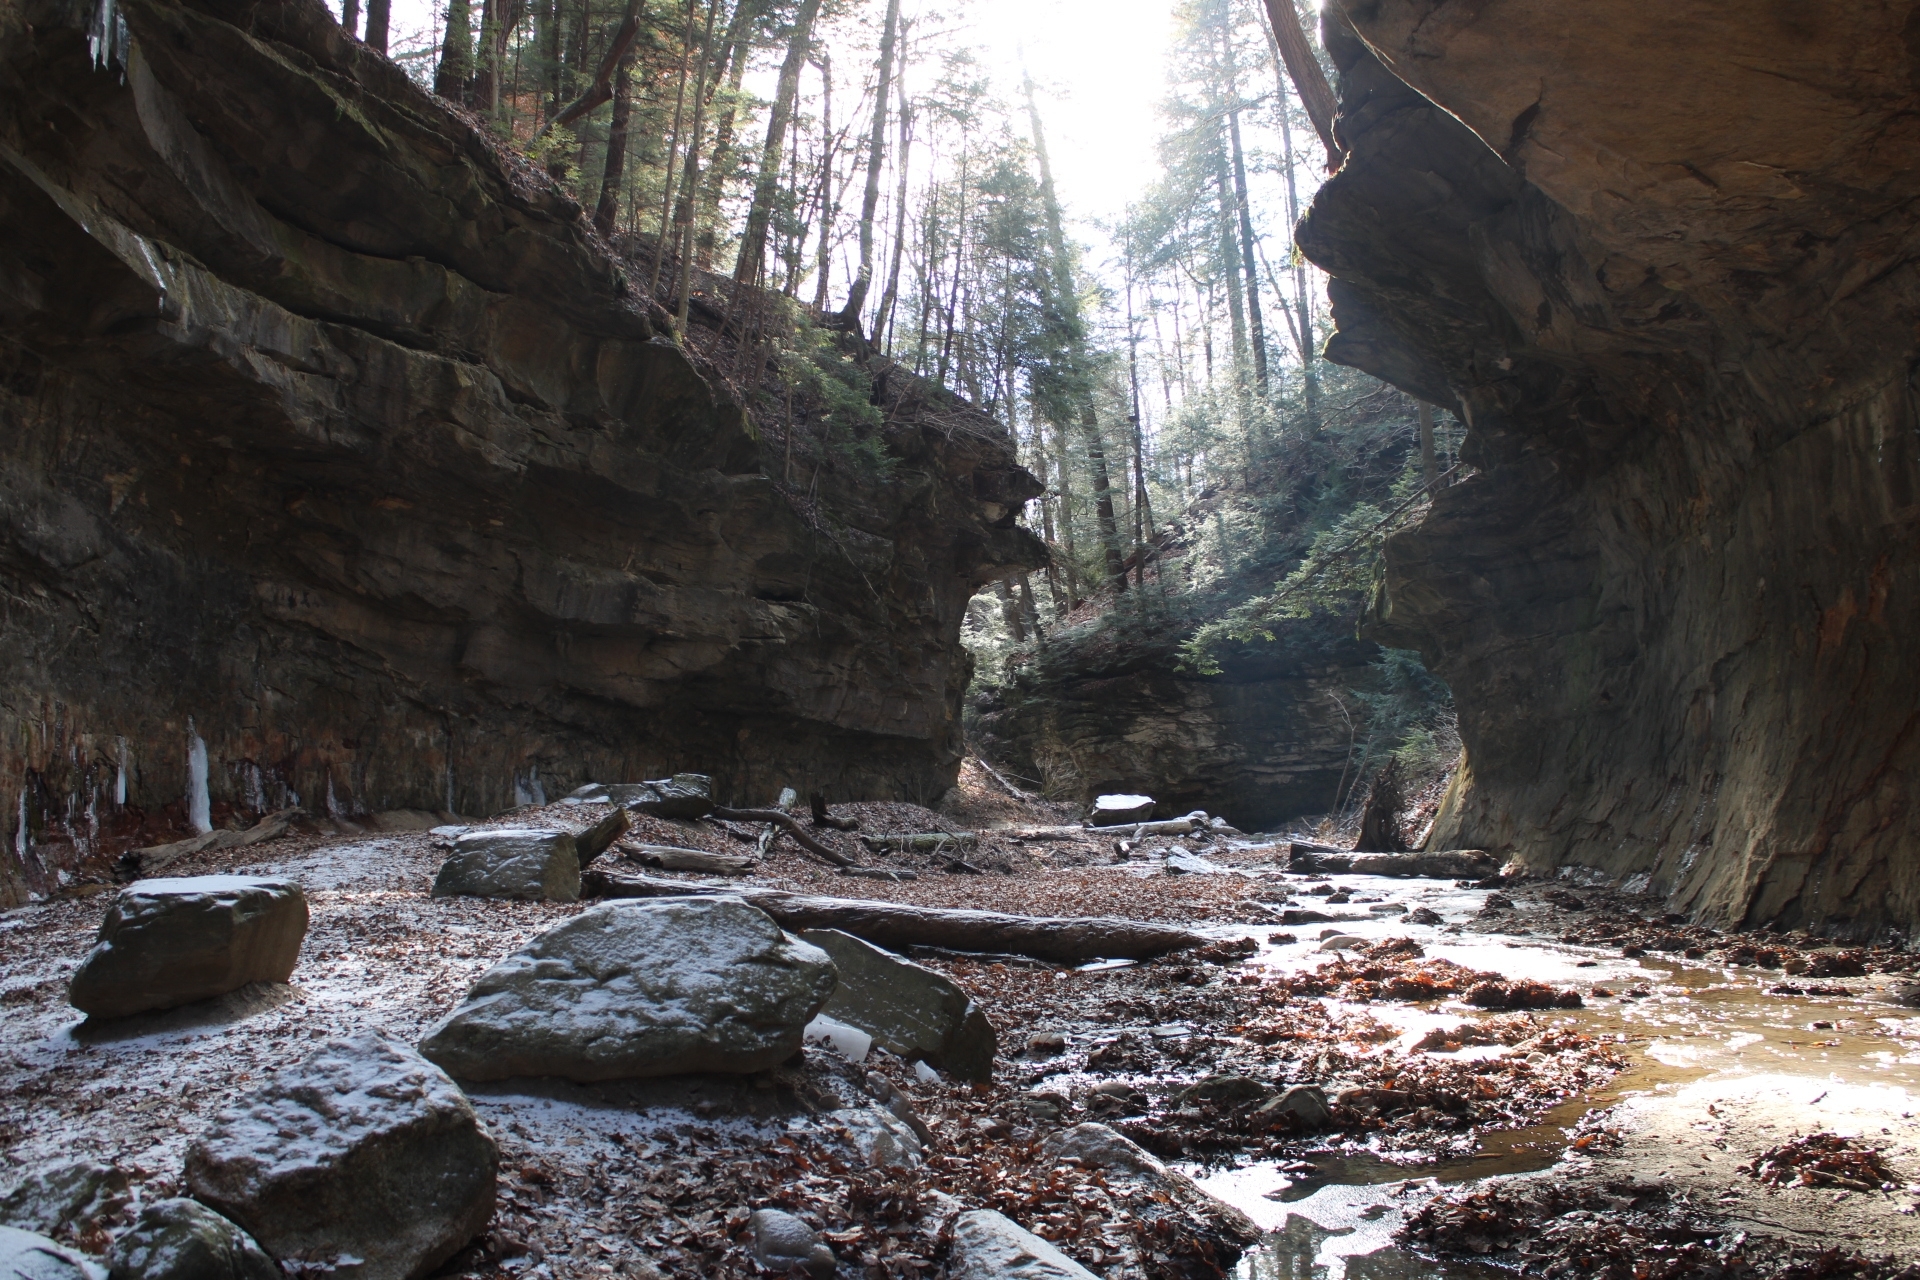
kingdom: Plantae
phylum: Tracheophyta
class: Pinopsida
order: Pinales
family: Pinaceae
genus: Tsuga
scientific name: Tsuga canadensis
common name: Eastern hemlock
